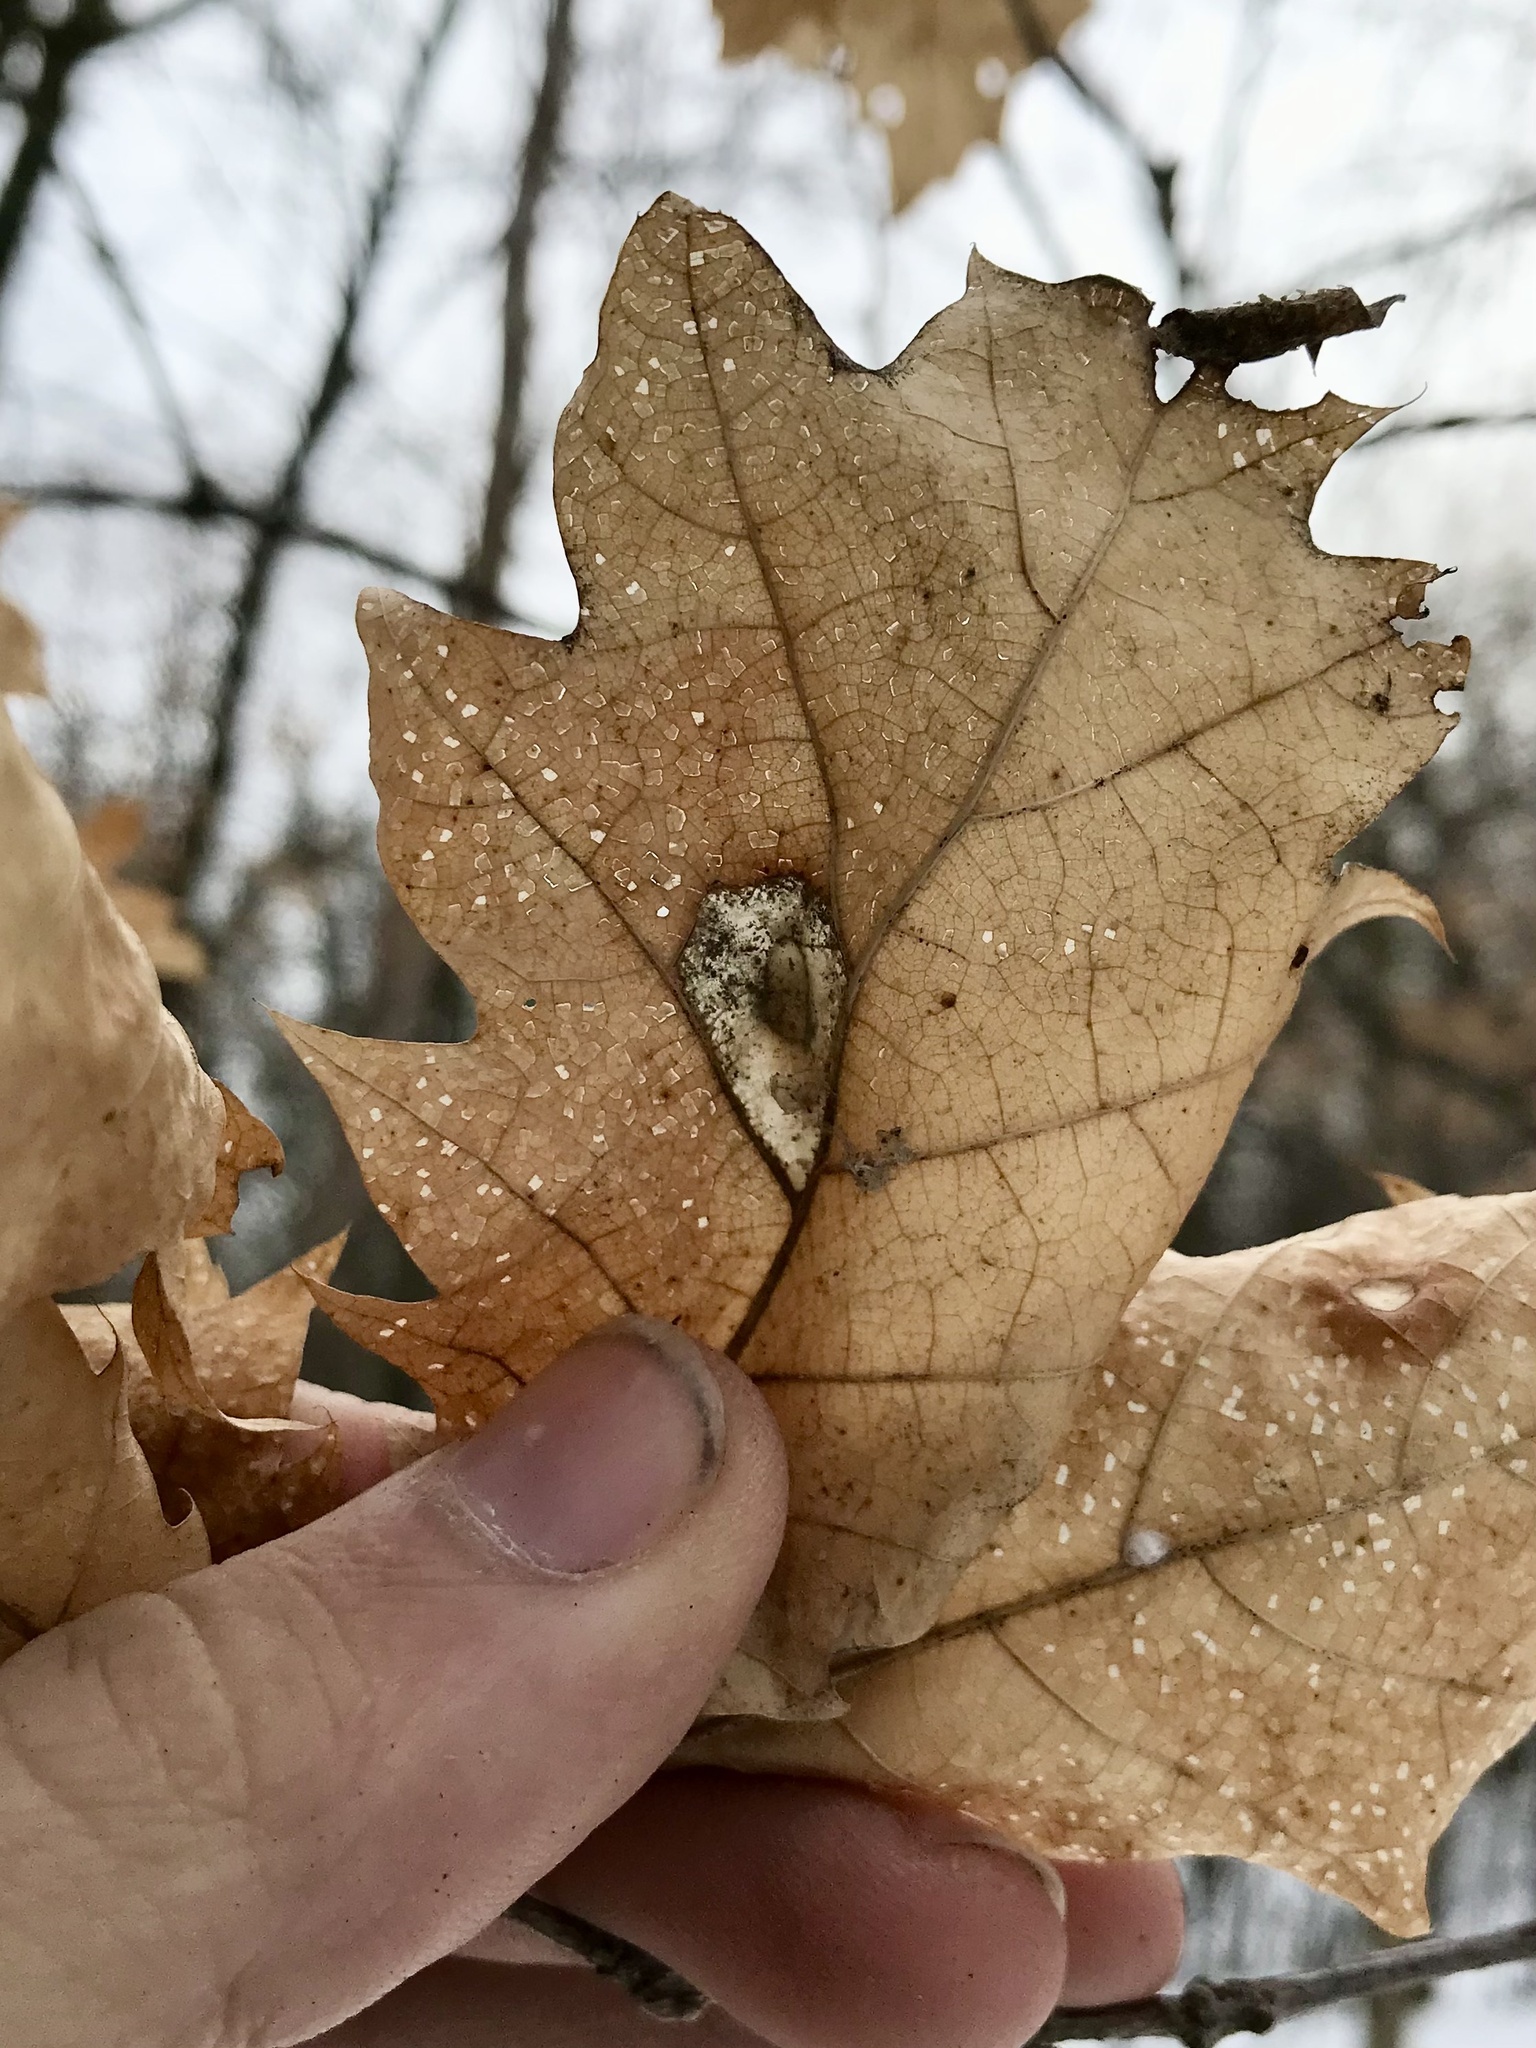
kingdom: Animalia
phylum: Arthropoda
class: Insecta
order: Lepidoptera
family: Gracillariidae
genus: Phyllonorycter
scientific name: Phyllonorycter basistrigella
